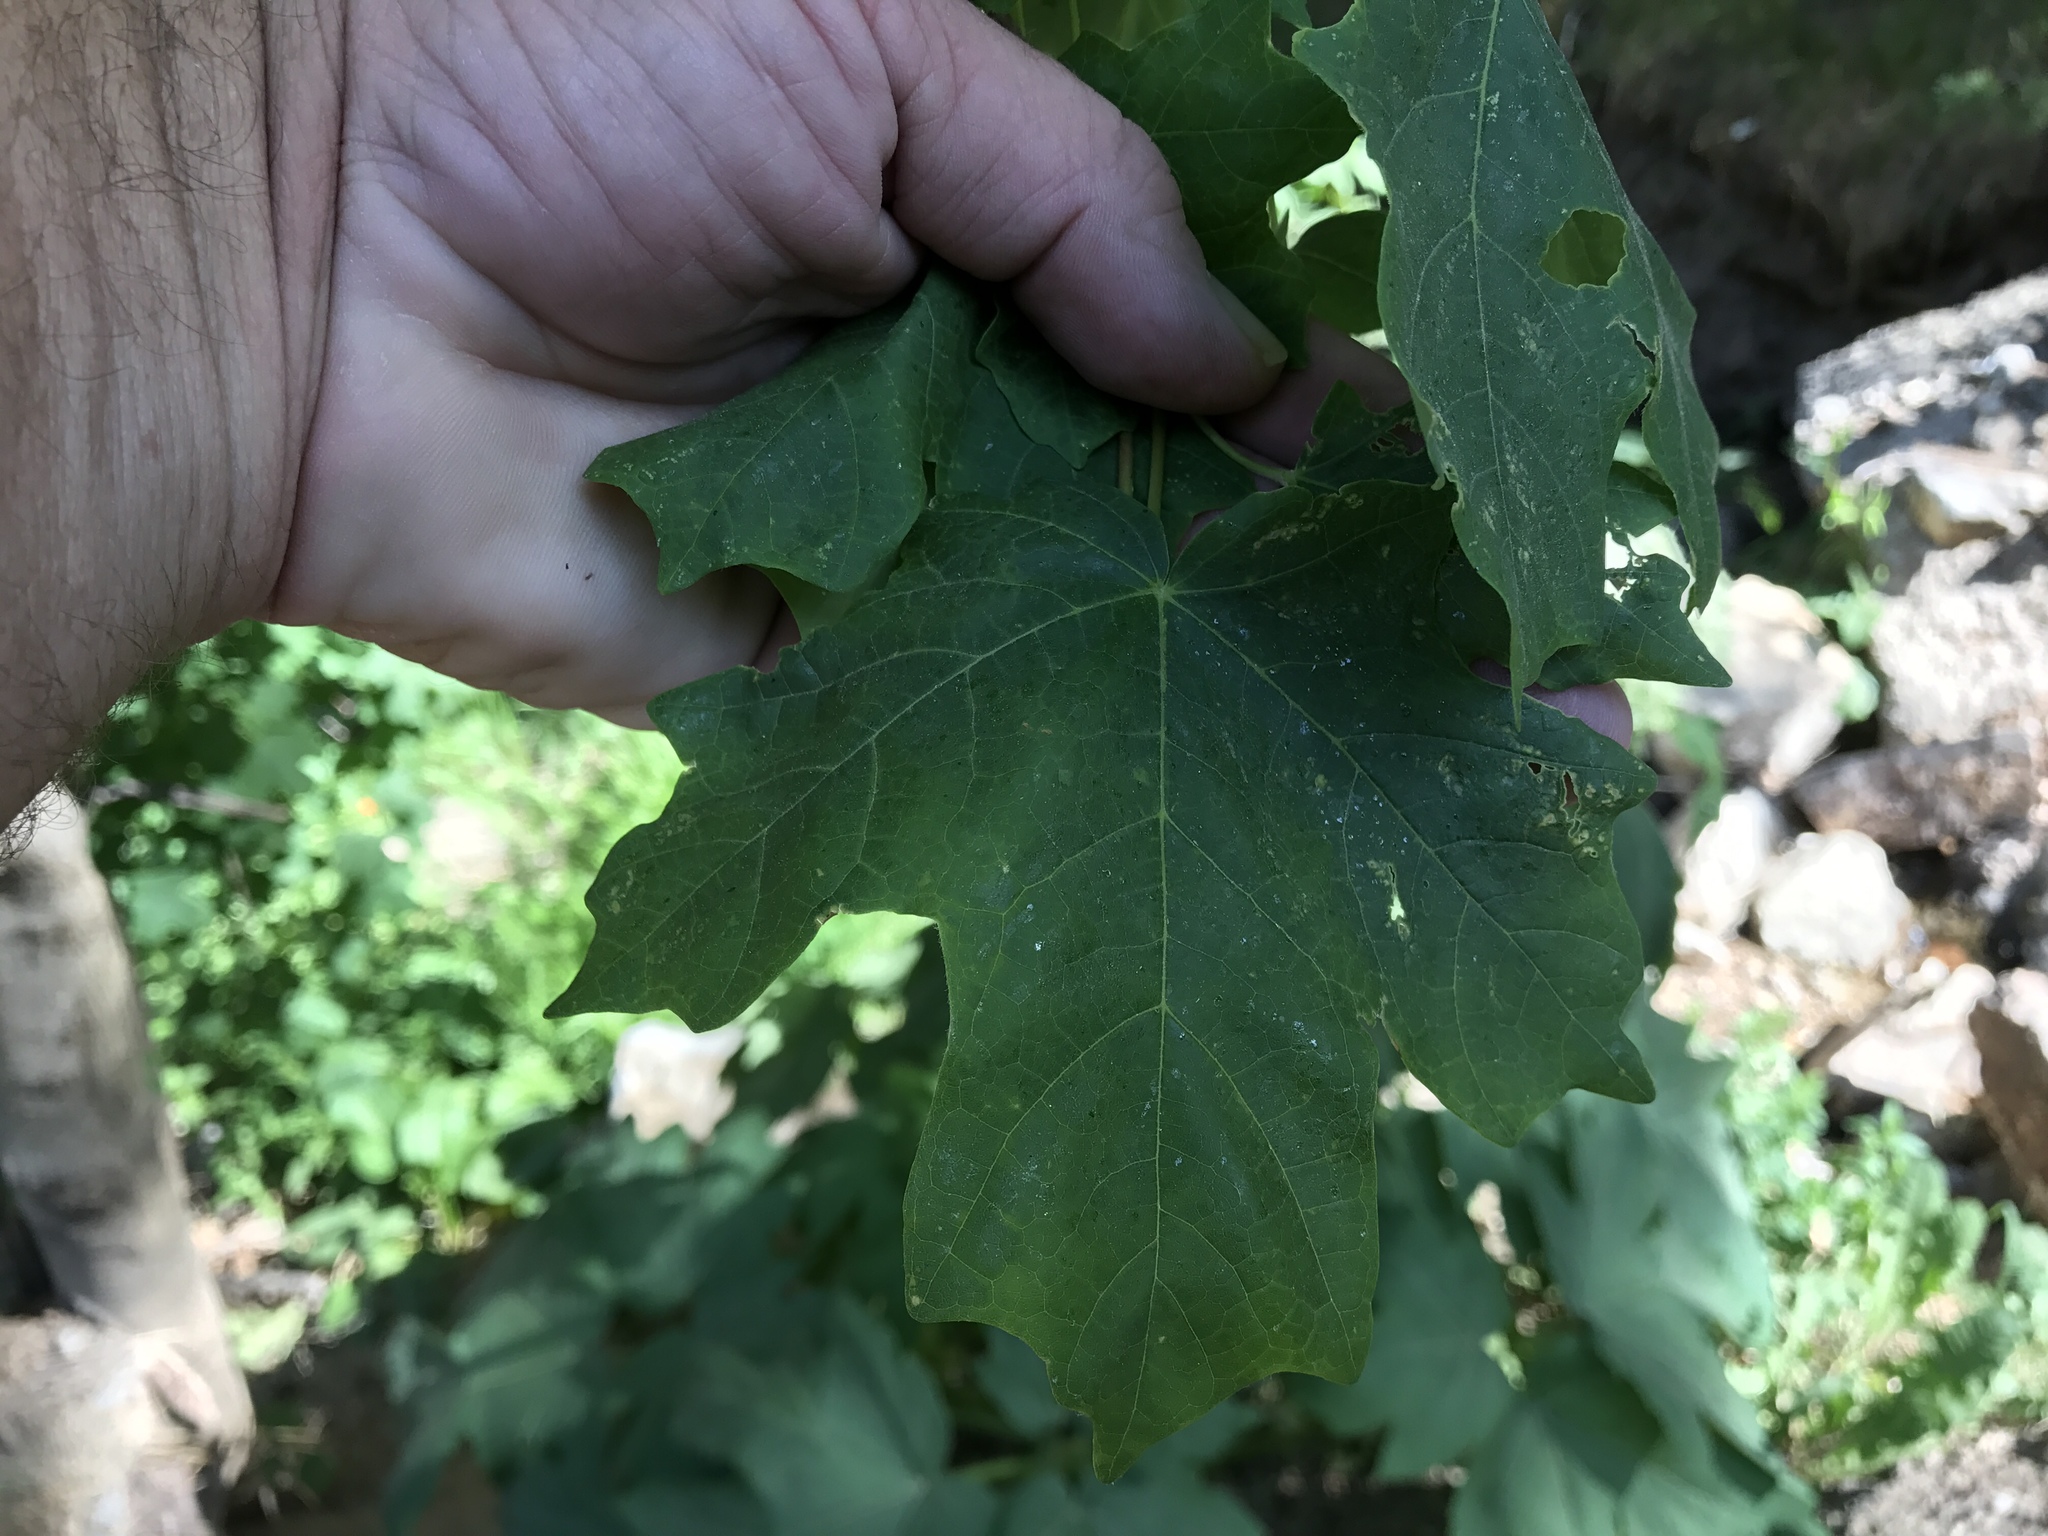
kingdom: Plantae
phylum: Tracheophyta
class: Magnoliopsida
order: Sapindales
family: Sapindaceae
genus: Acer
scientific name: Acer grandidentatum
